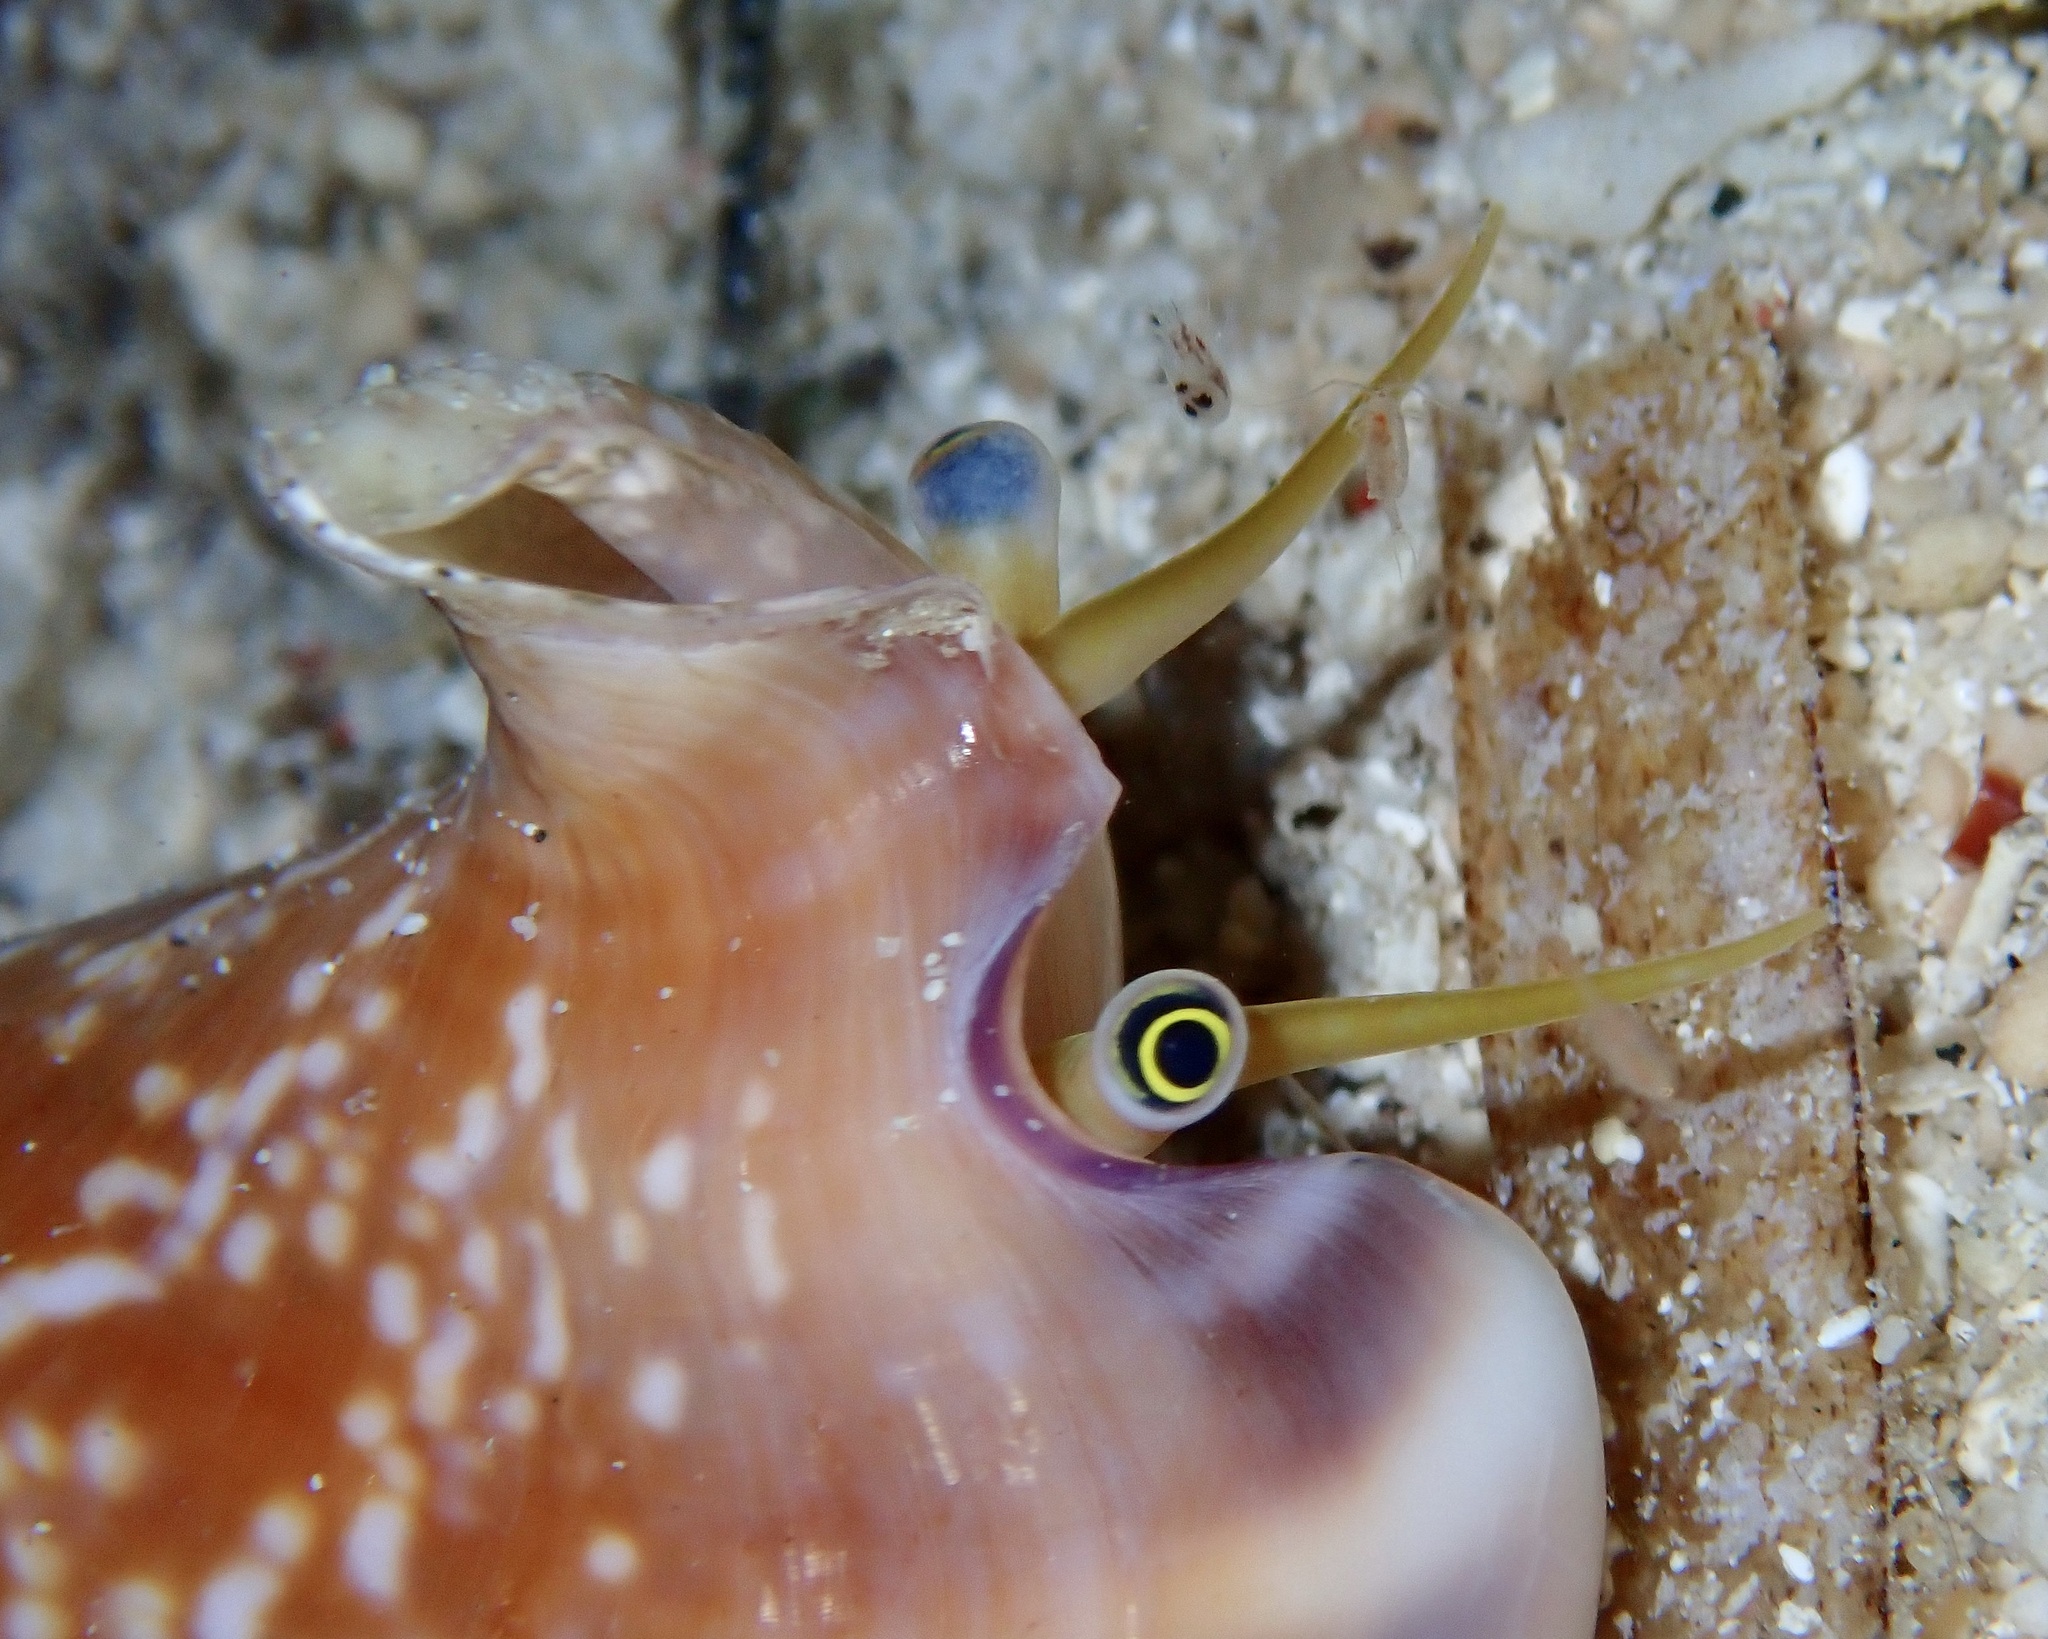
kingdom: Animalia
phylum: Mollusca
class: Gastropoda
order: Littorinimorpha
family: Strombidae
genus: Euprotomus
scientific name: Euprotomus bulla
